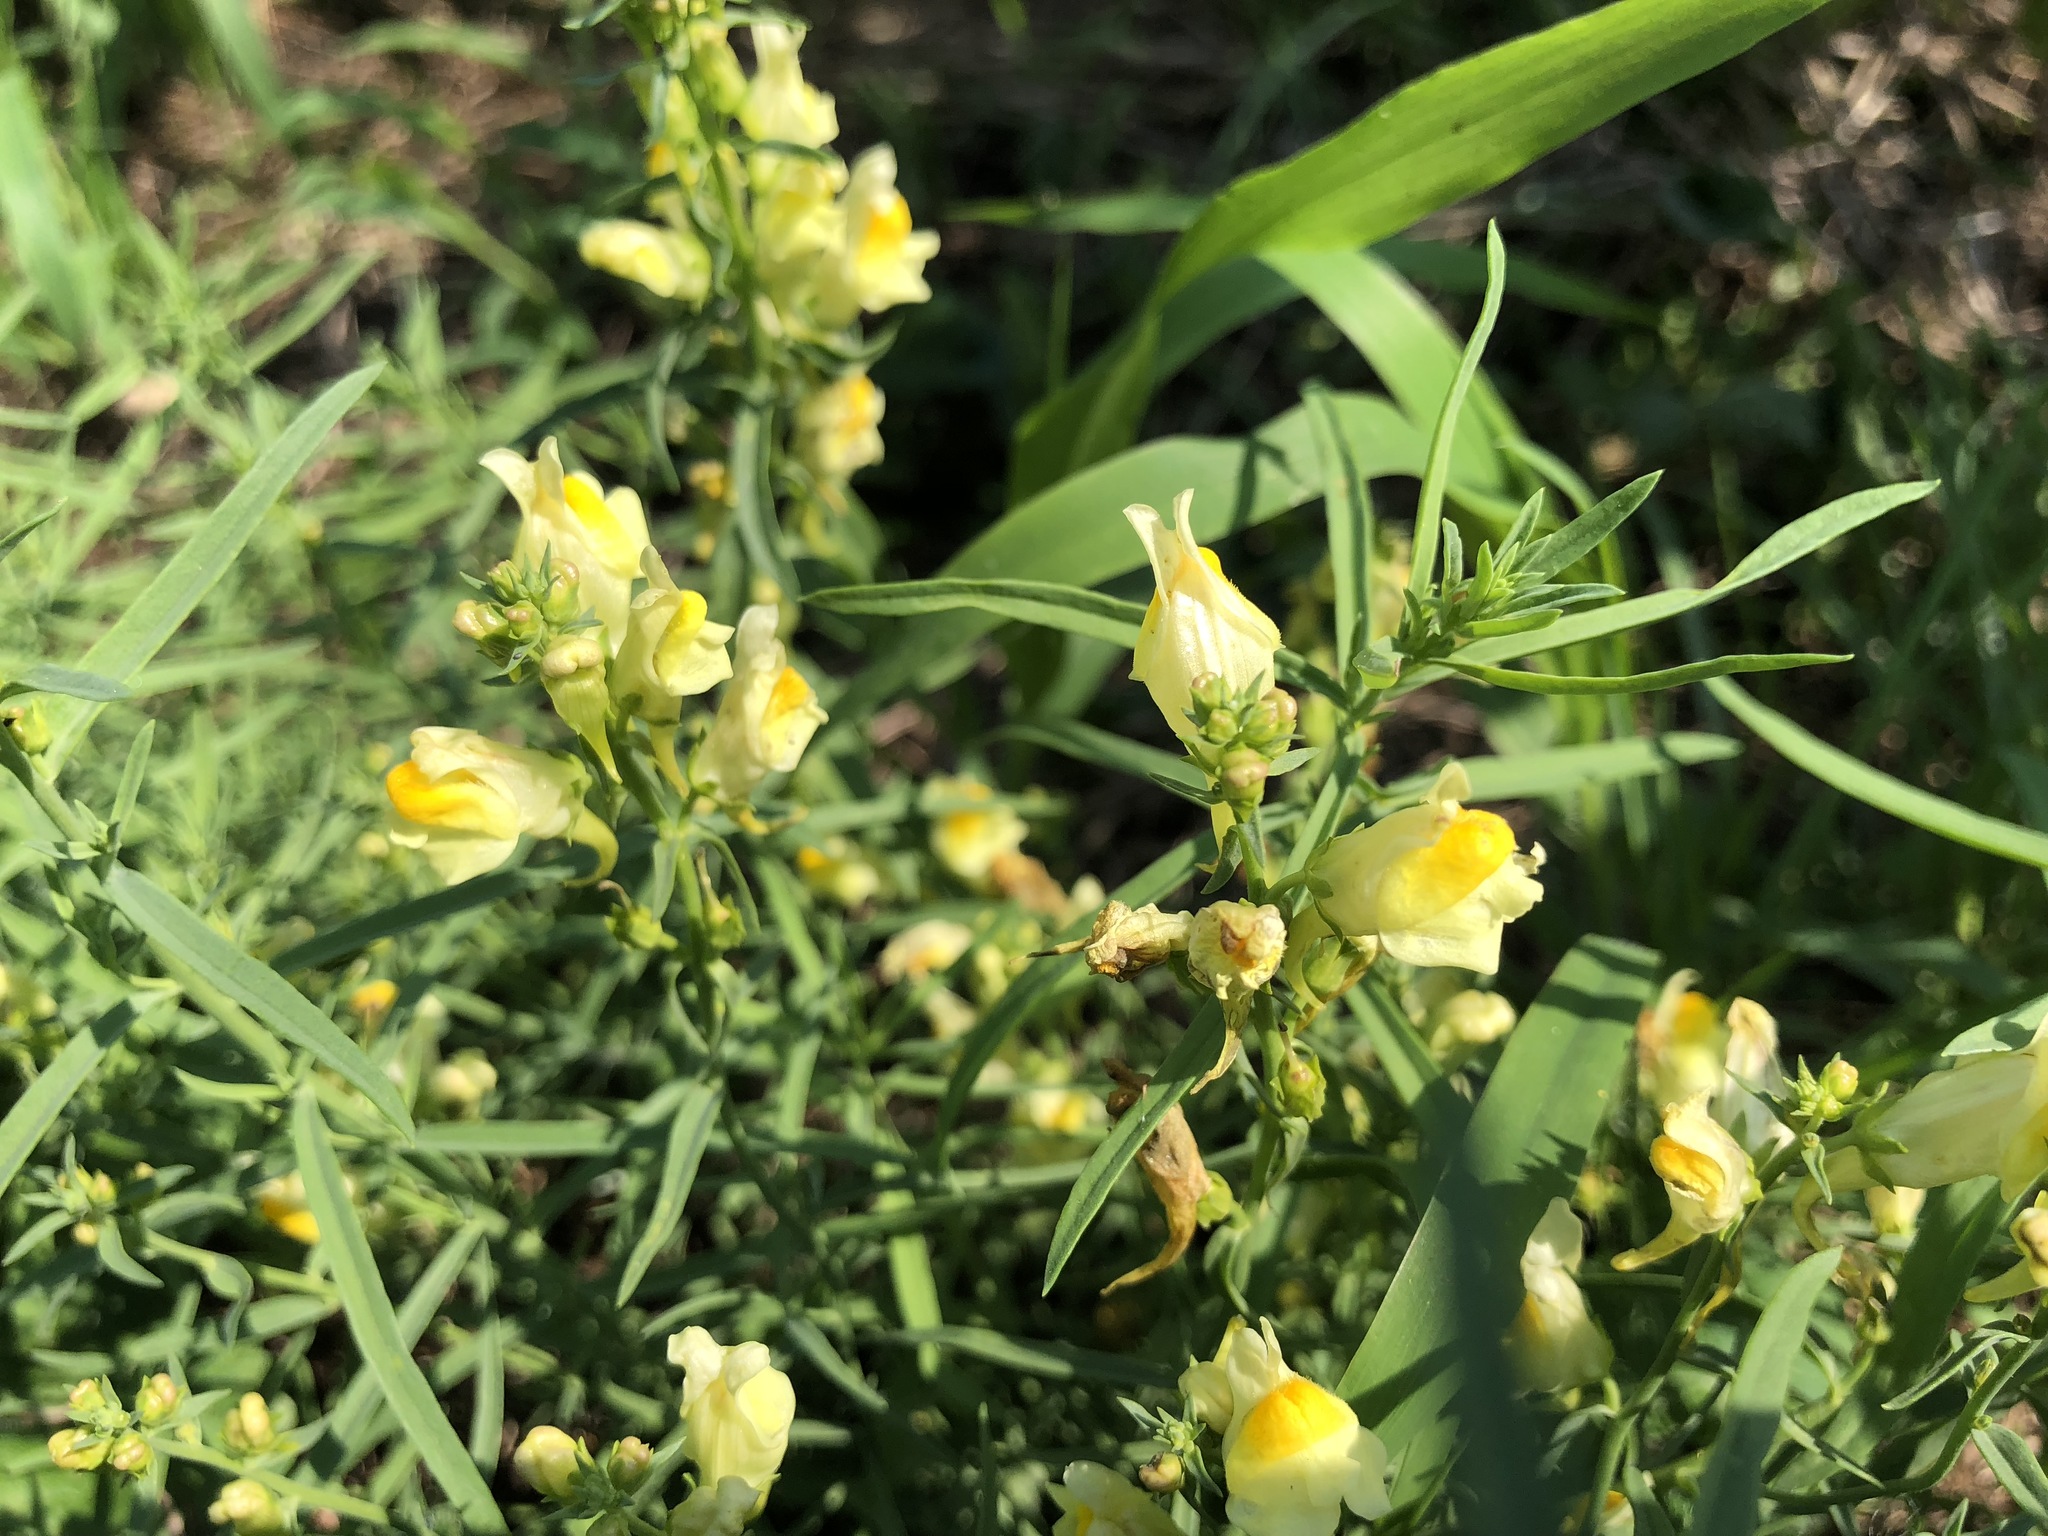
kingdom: Plantae
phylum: Tracheophyta
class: Magnoliopsida
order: Lamiales
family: Plantaginaceae
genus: Linaria
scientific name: Linaria vulgaris
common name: Butter and eggs
